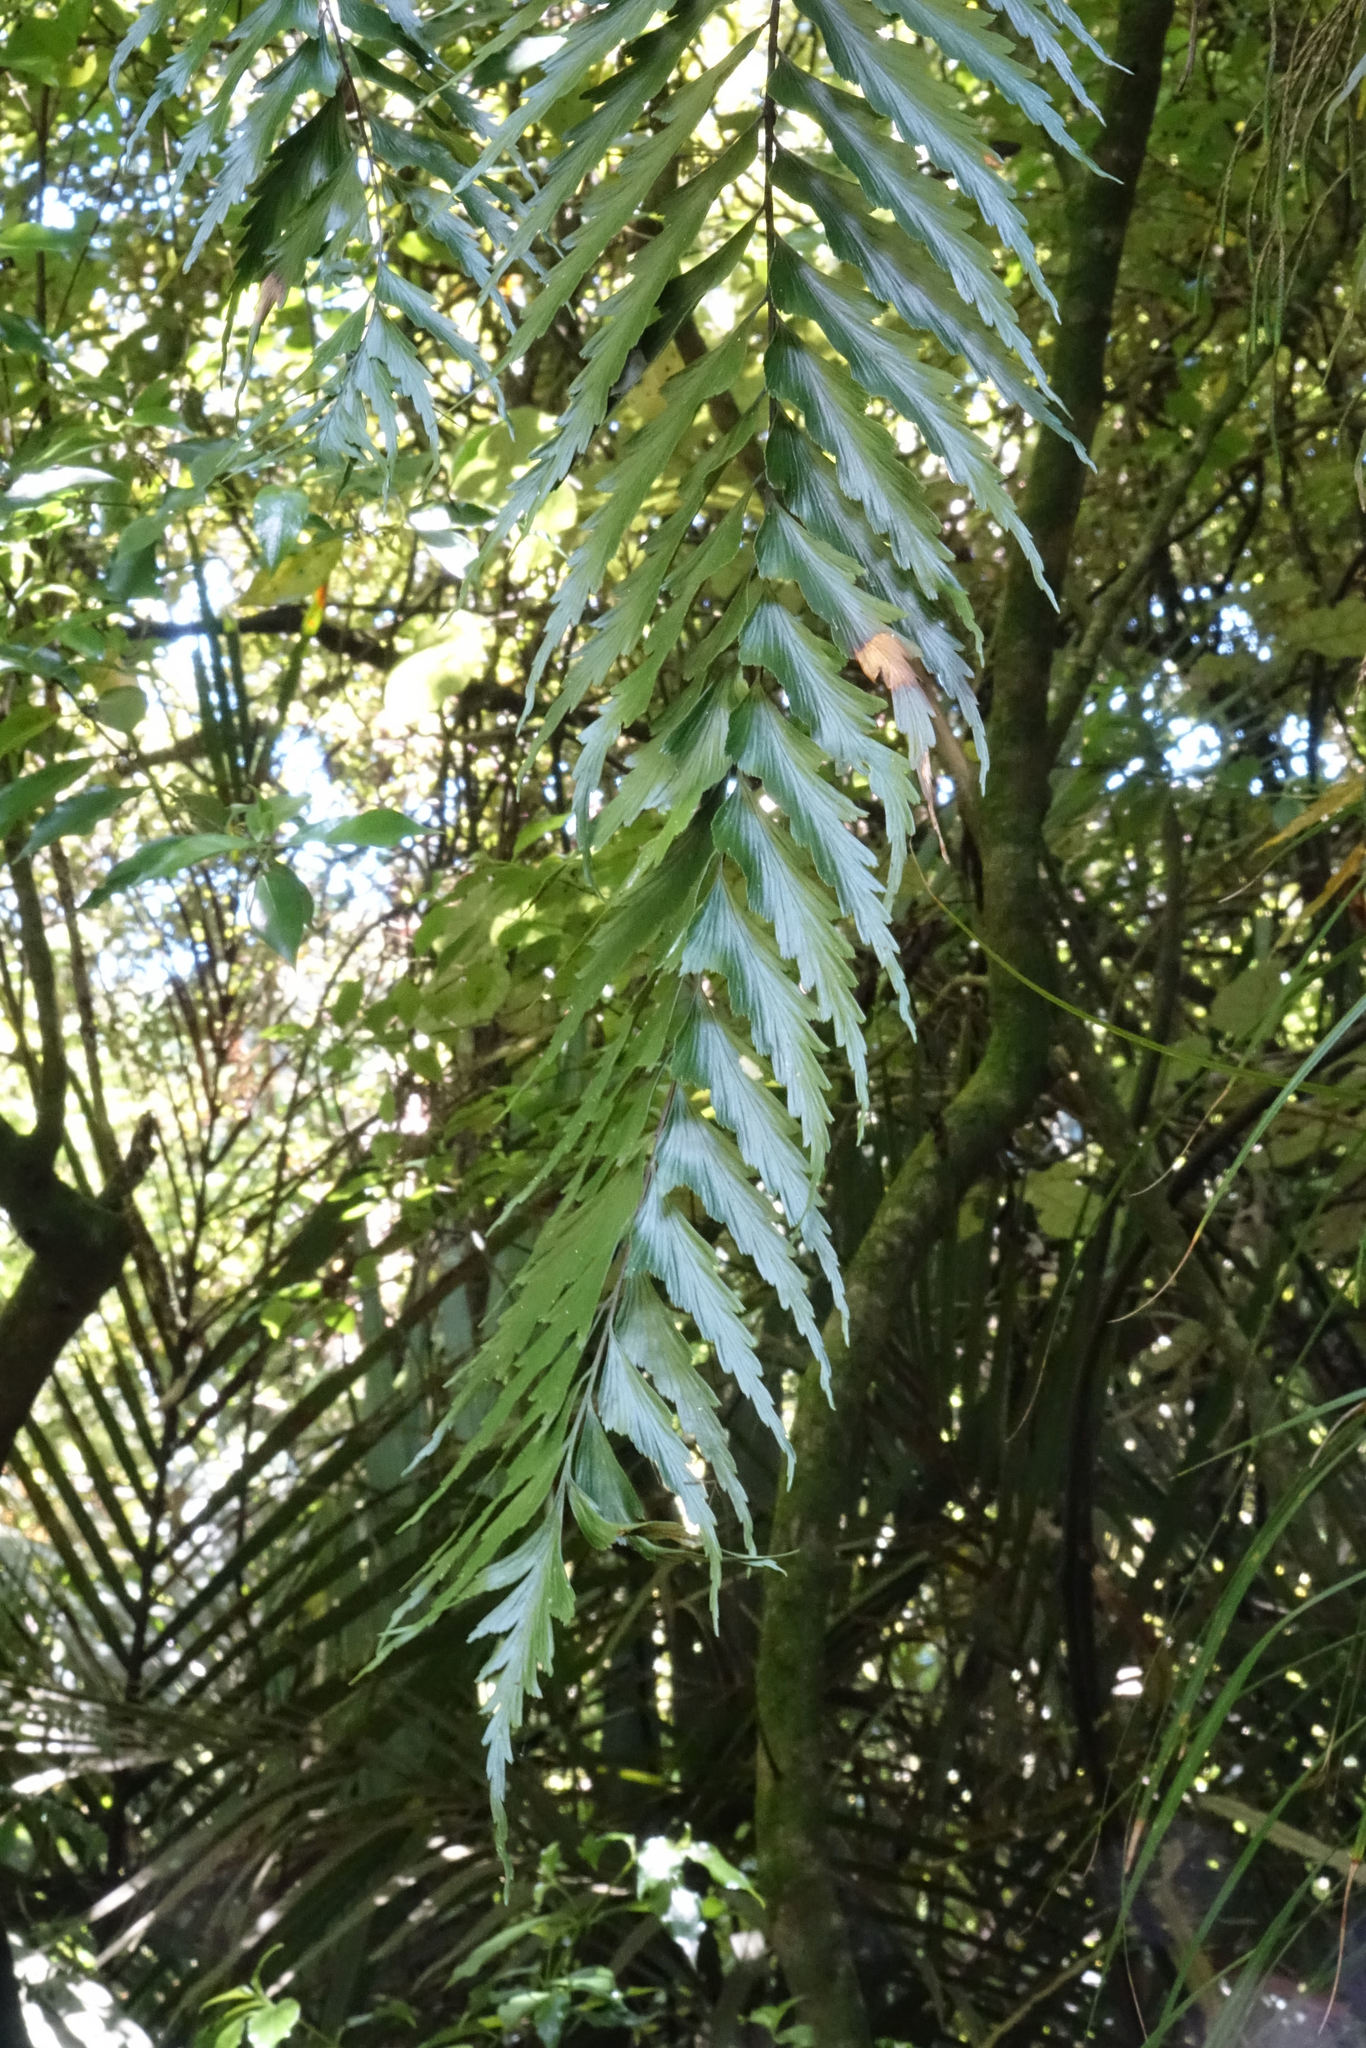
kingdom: Plantae
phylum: Tracheophyta
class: Polypodiopsida
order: Polypodiales
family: Aspleniaceae
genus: Asplenium
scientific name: Asplenium polyodon
